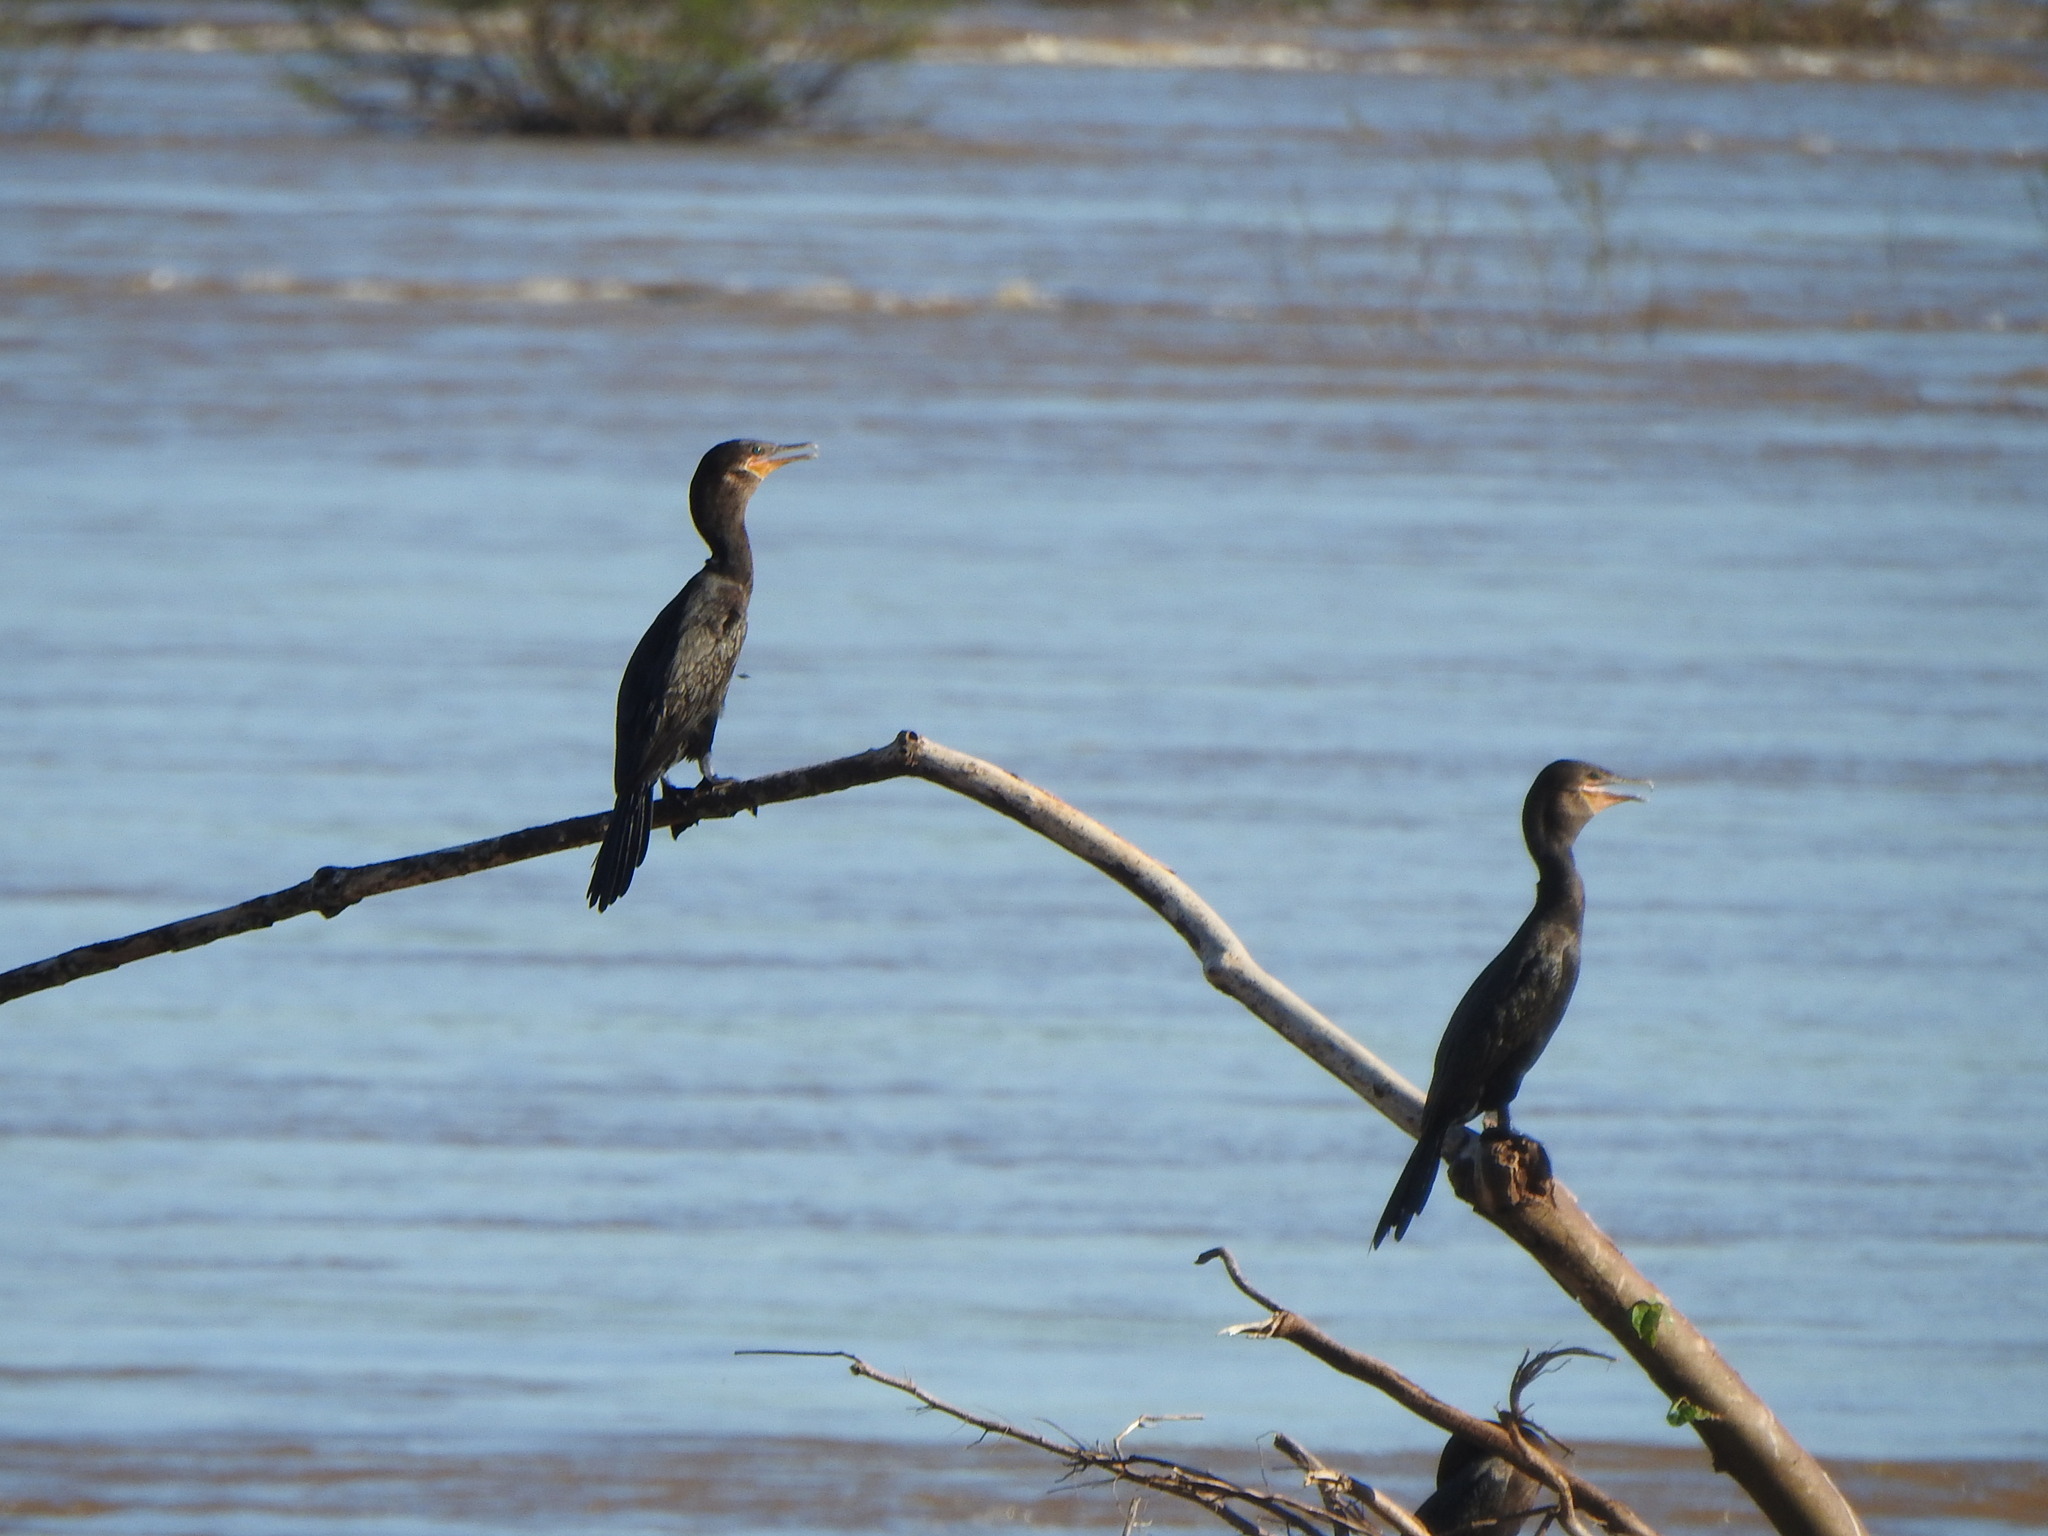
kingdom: Animalia
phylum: Chordata
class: Aves
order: Suliformes
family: Phalacrocoracidae
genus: Phalacrocorax
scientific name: Phalacrocorax brasilianus
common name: Neotropic cormorant
